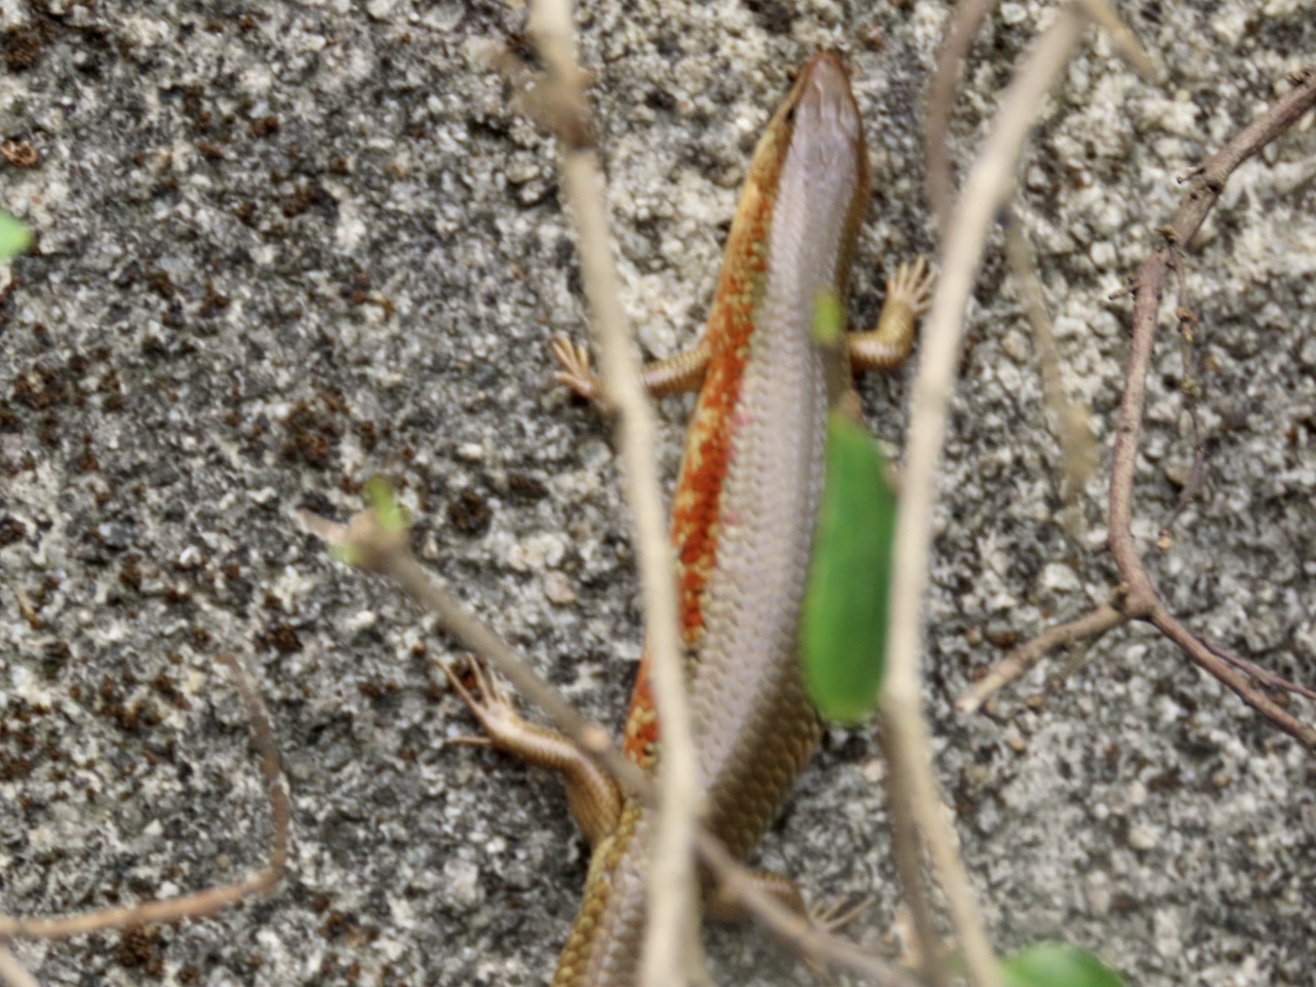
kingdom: Animalia
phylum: Chordata
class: Squamata
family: Scincidae
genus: Plestiodon
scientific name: Plestiodon chinensis
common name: Chinese blue-tailed skink
